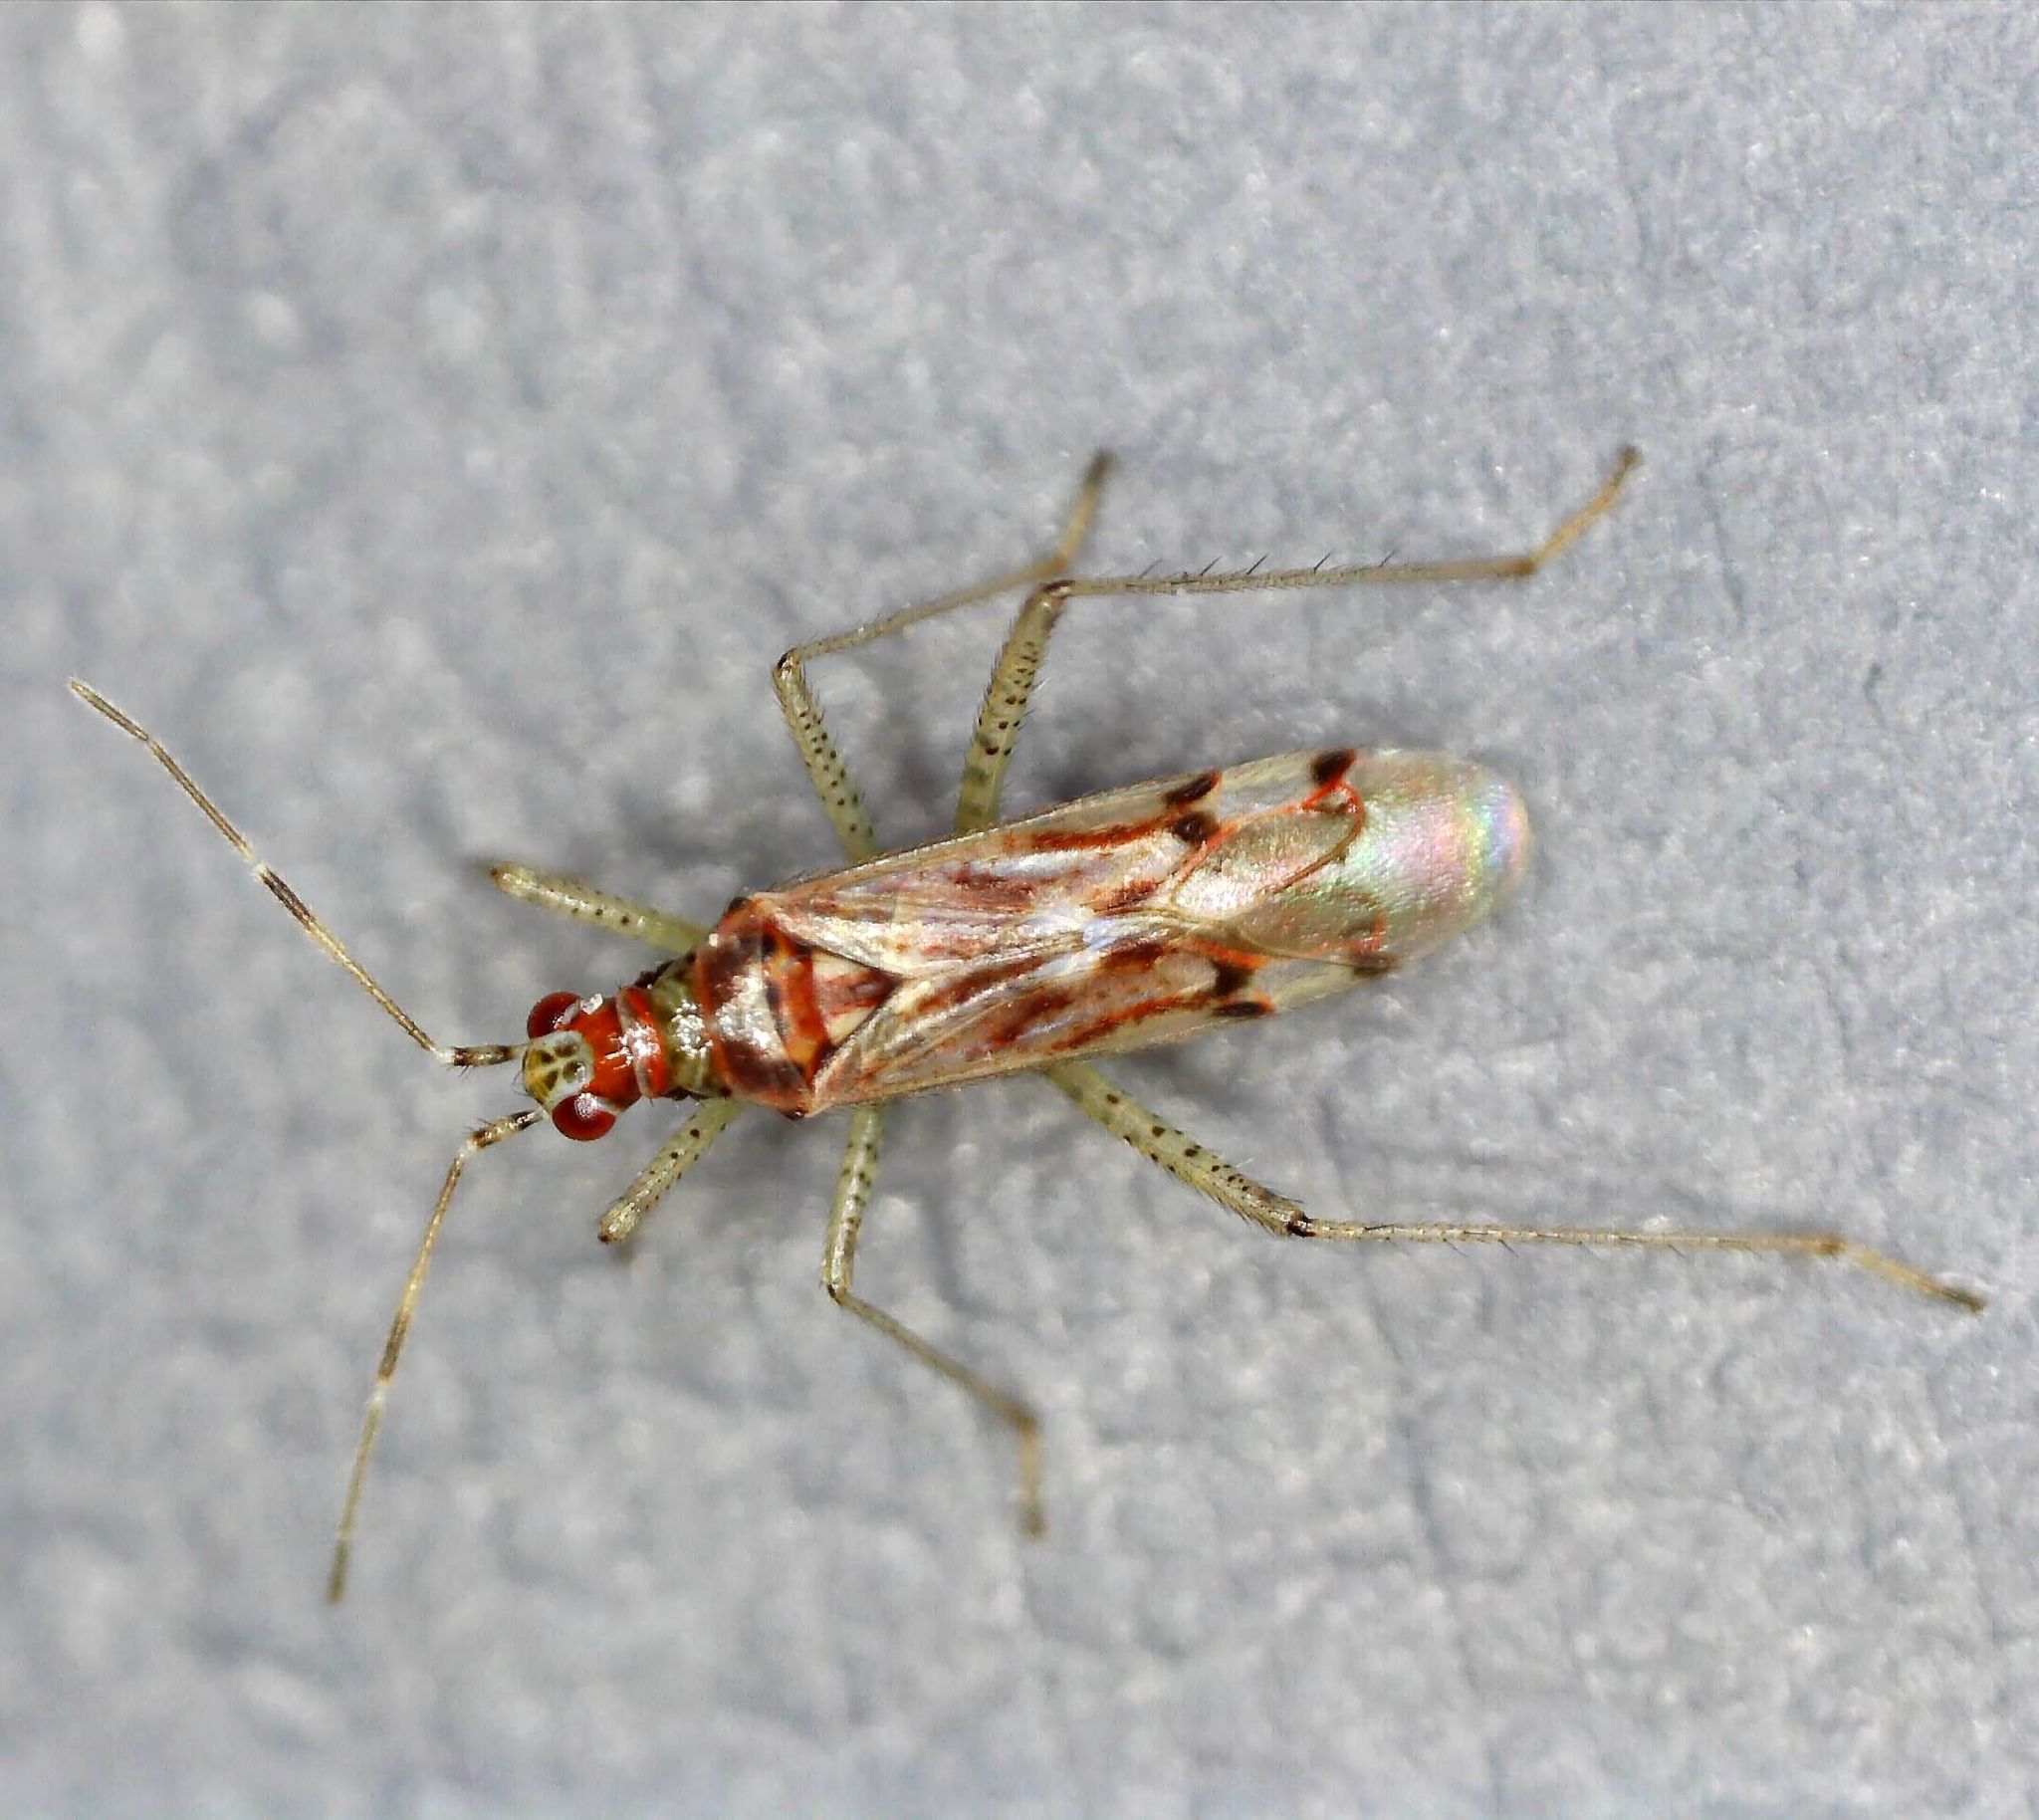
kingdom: Animalia
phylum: Arthropoda
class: Insecta
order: Hemiptera
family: Miridae
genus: Dicyphus
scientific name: Dicyphus stachydis
